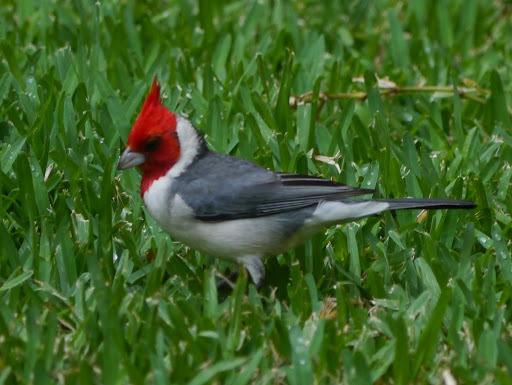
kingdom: Animalia
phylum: Chordata
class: Aves
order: Passeriformes
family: Thraupidae
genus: Paroaria
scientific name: Paroaria coronata
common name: Red-crested cardinal
